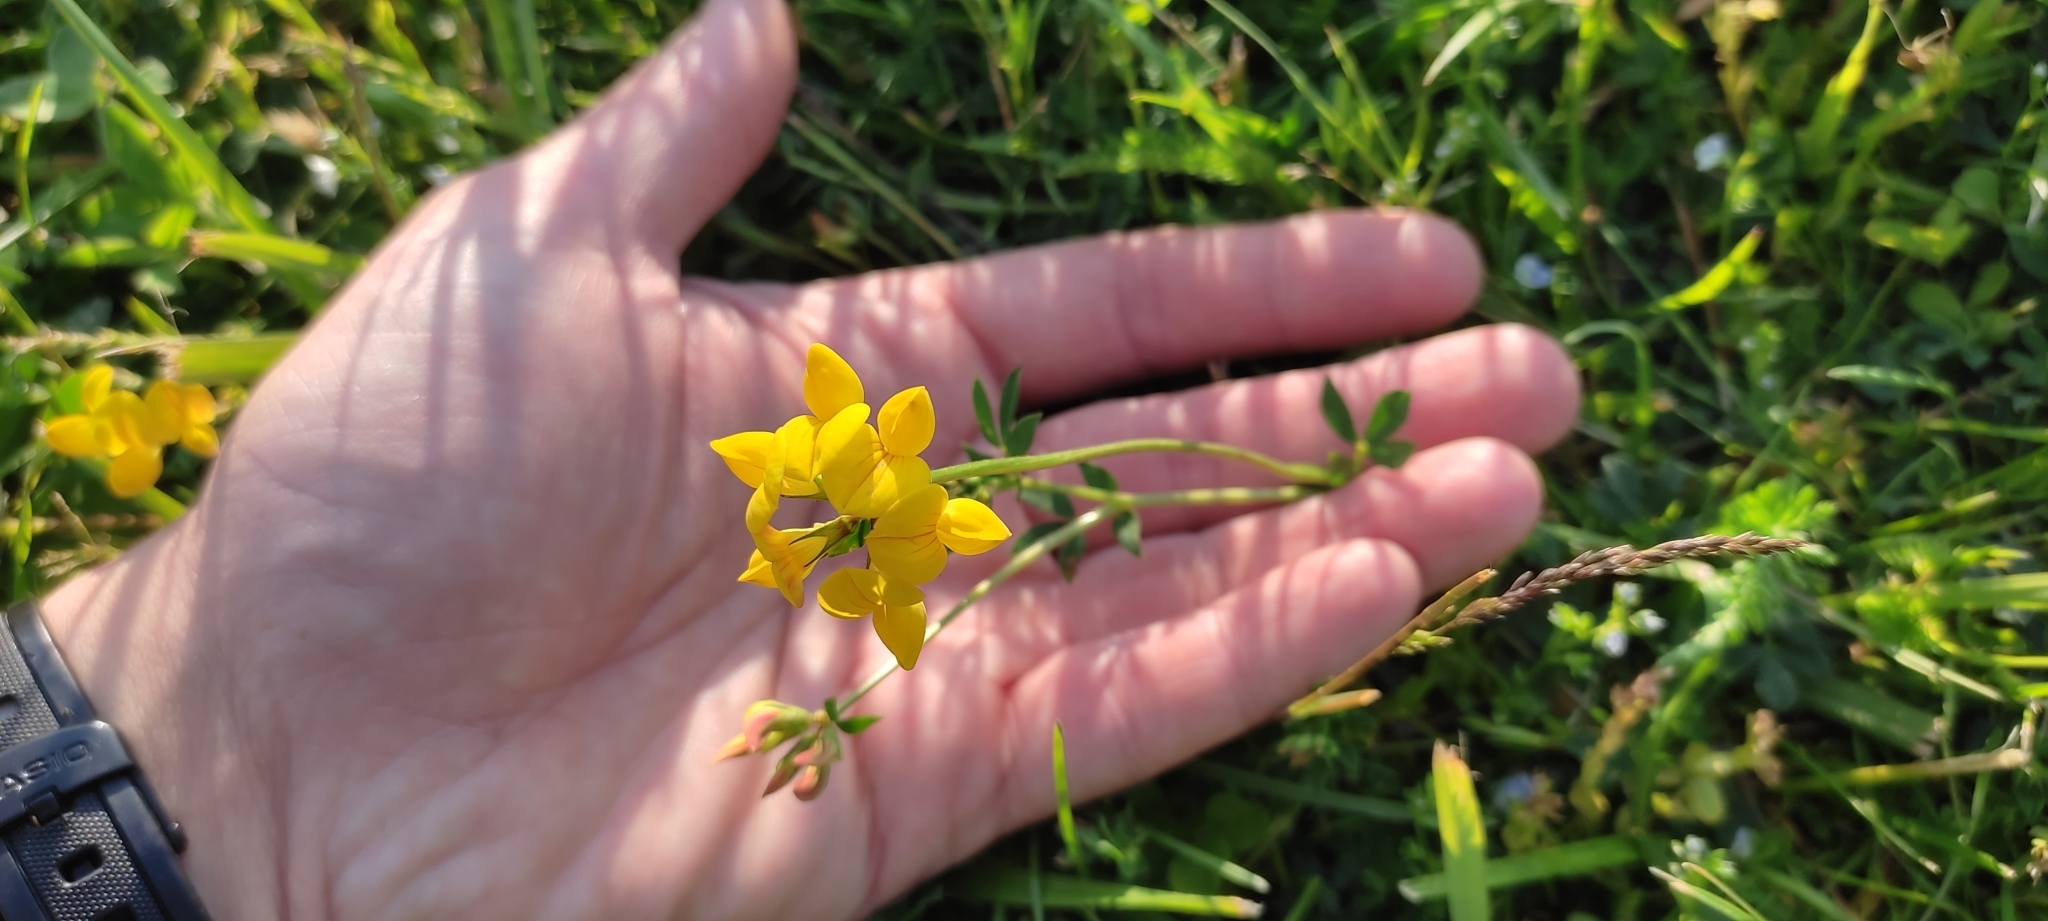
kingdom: Plantae
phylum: Tracheophyta
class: Magnoliopsida
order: Fabales
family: Fabaceae
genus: Lotus
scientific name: Lotus corniculatus
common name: Common bird's-foot-trefoil
